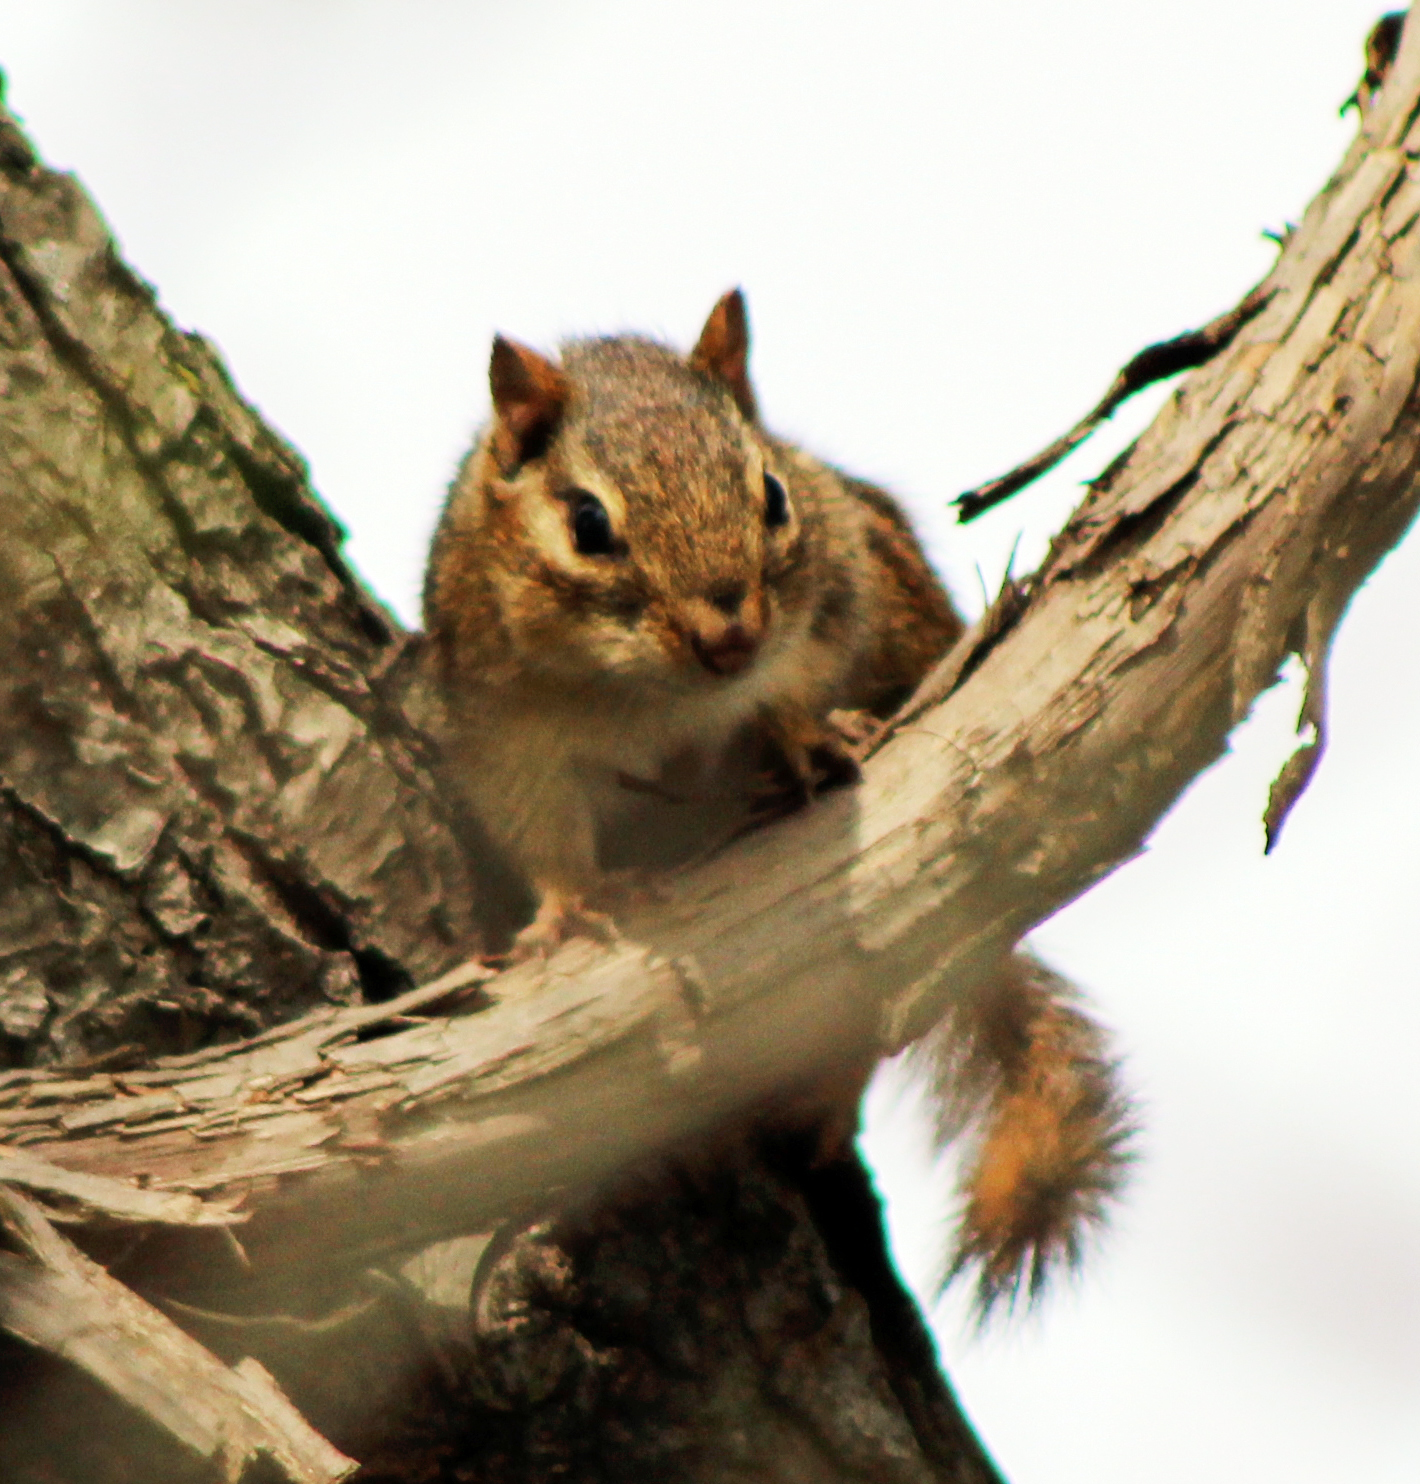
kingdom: Animalia
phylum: Chordata
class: Mammalia
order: Rodentia
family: Sciuridae
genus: Tamias
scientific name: Tamias striatus
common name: Eastern chipmunk
